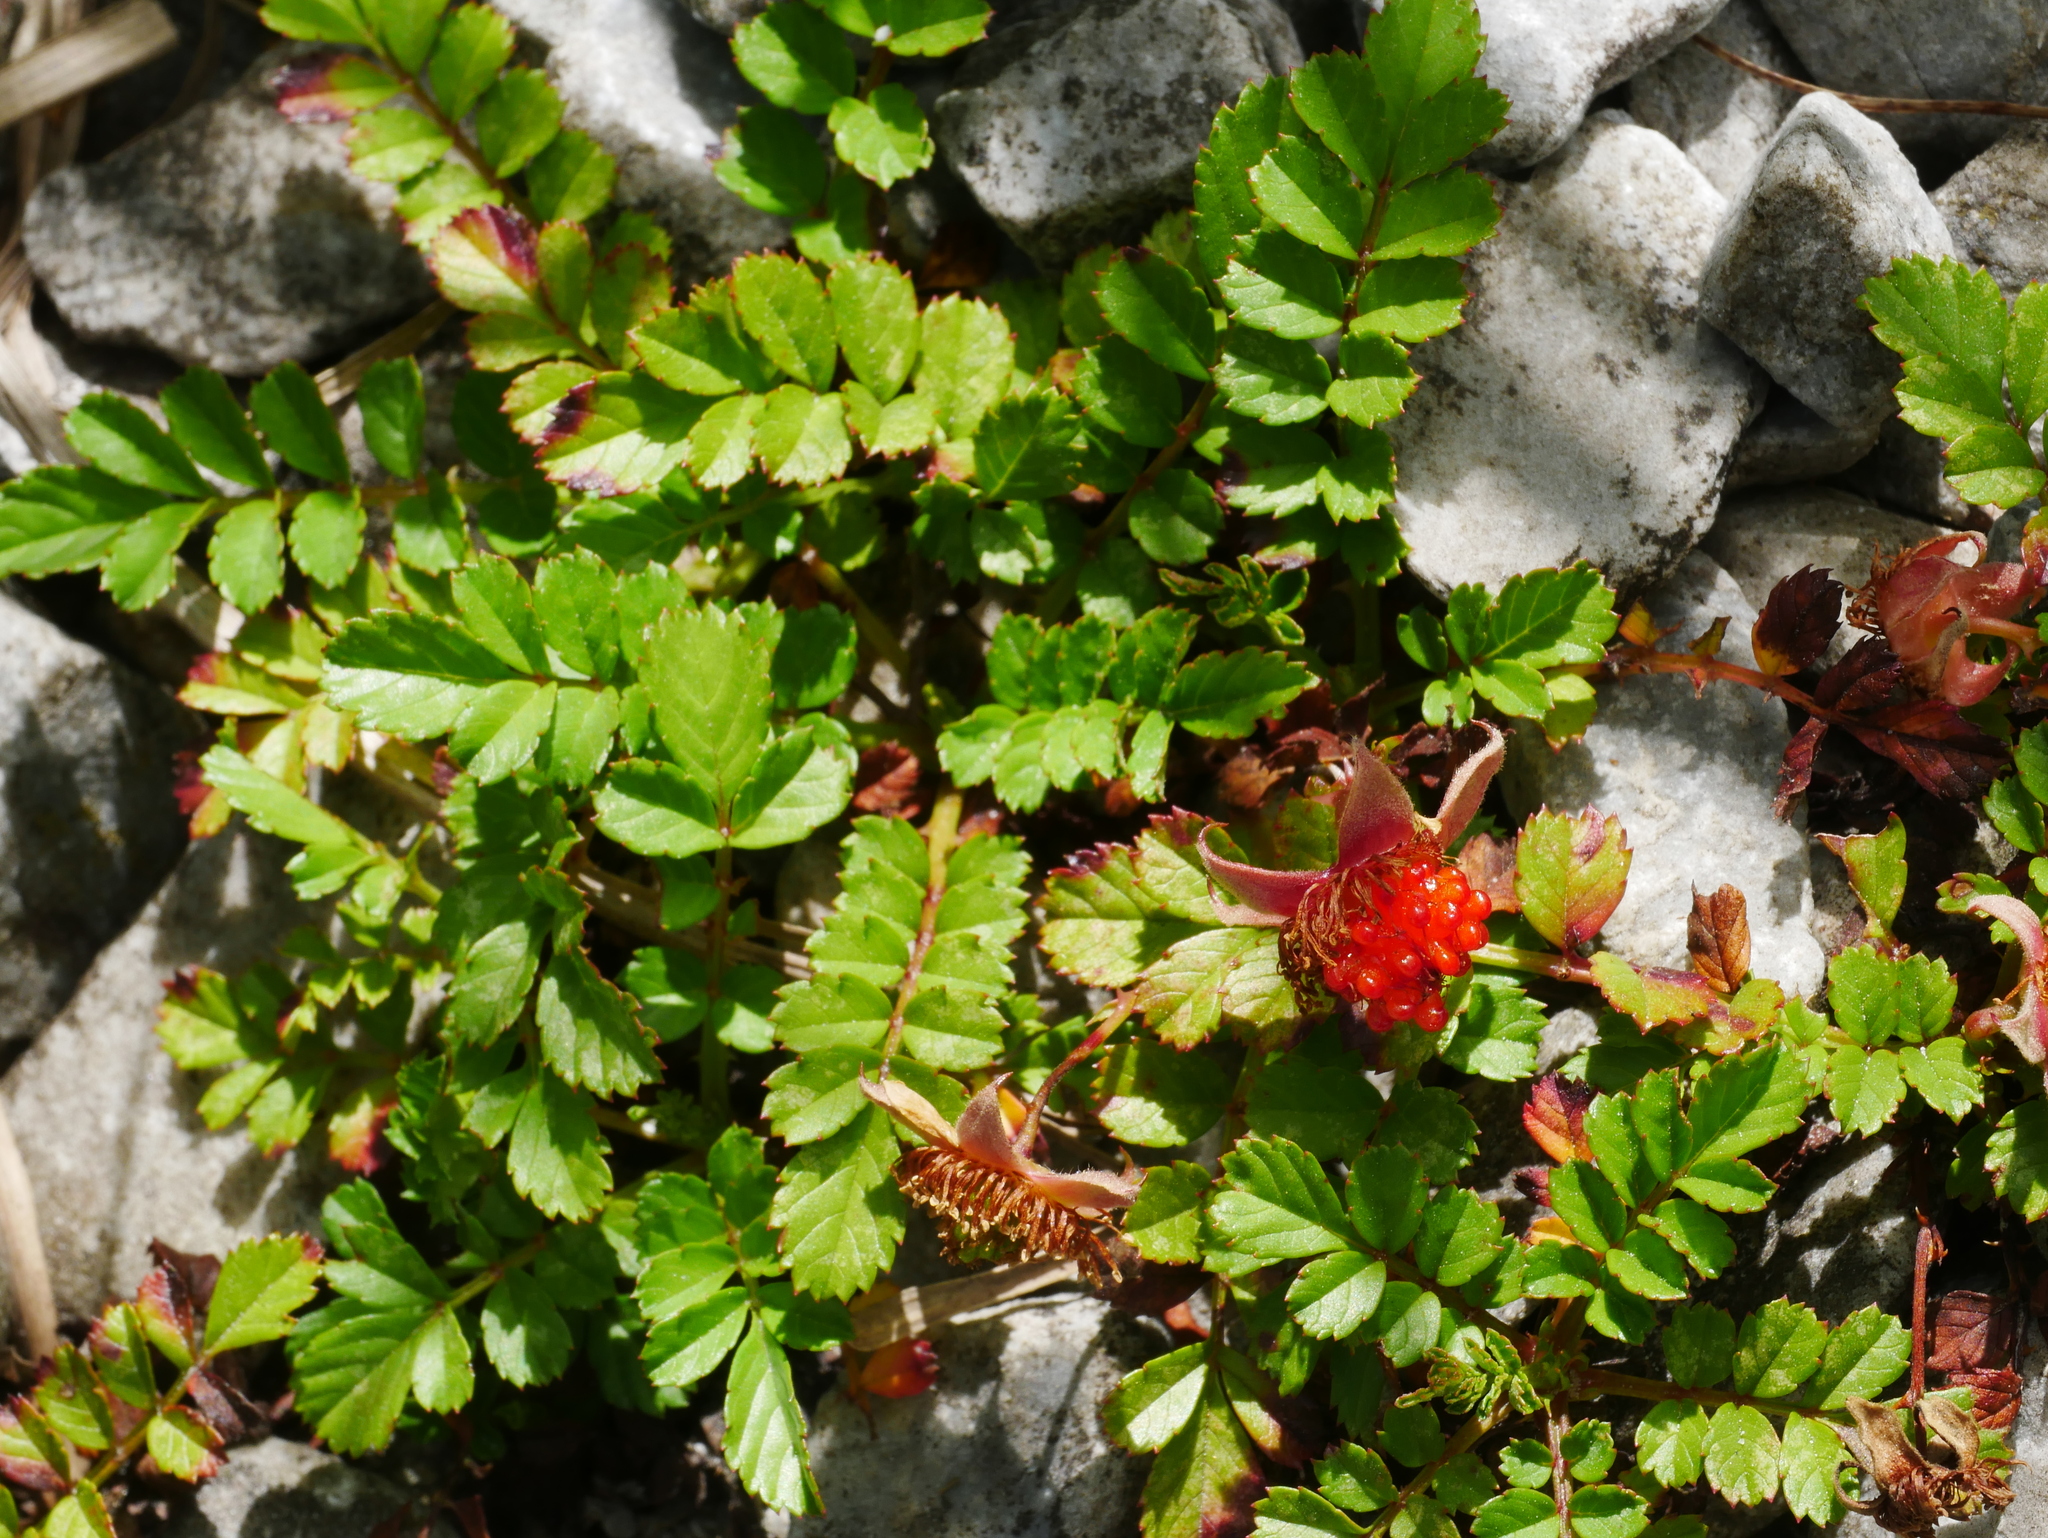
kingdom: Plantae
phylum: Tracheophyta
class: Magnoliopsida
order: Rosales
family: Rosaceae
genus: Rubus
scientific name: Rubus taiwanicola
